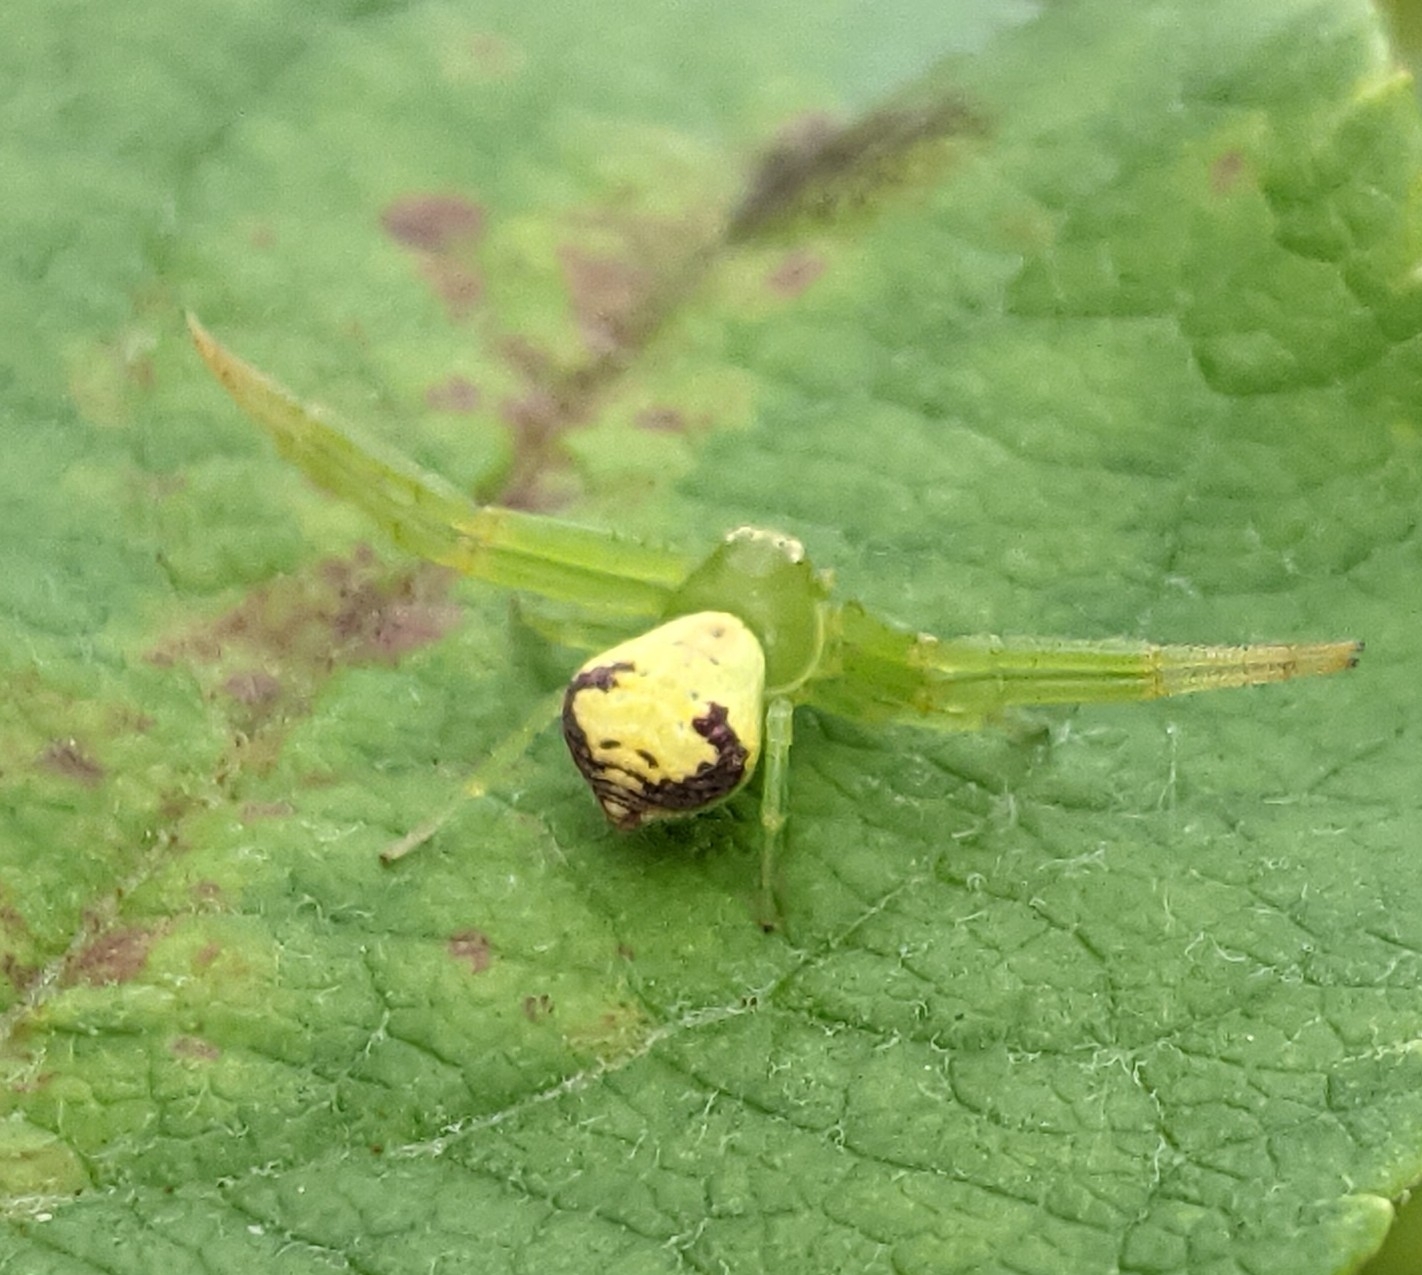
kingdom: Animalia
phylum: Arthropoda
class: Arachnida
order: Araneae
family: Thomisidae
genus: Ebrechtella
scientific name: Ebrechtella tricuspidata
